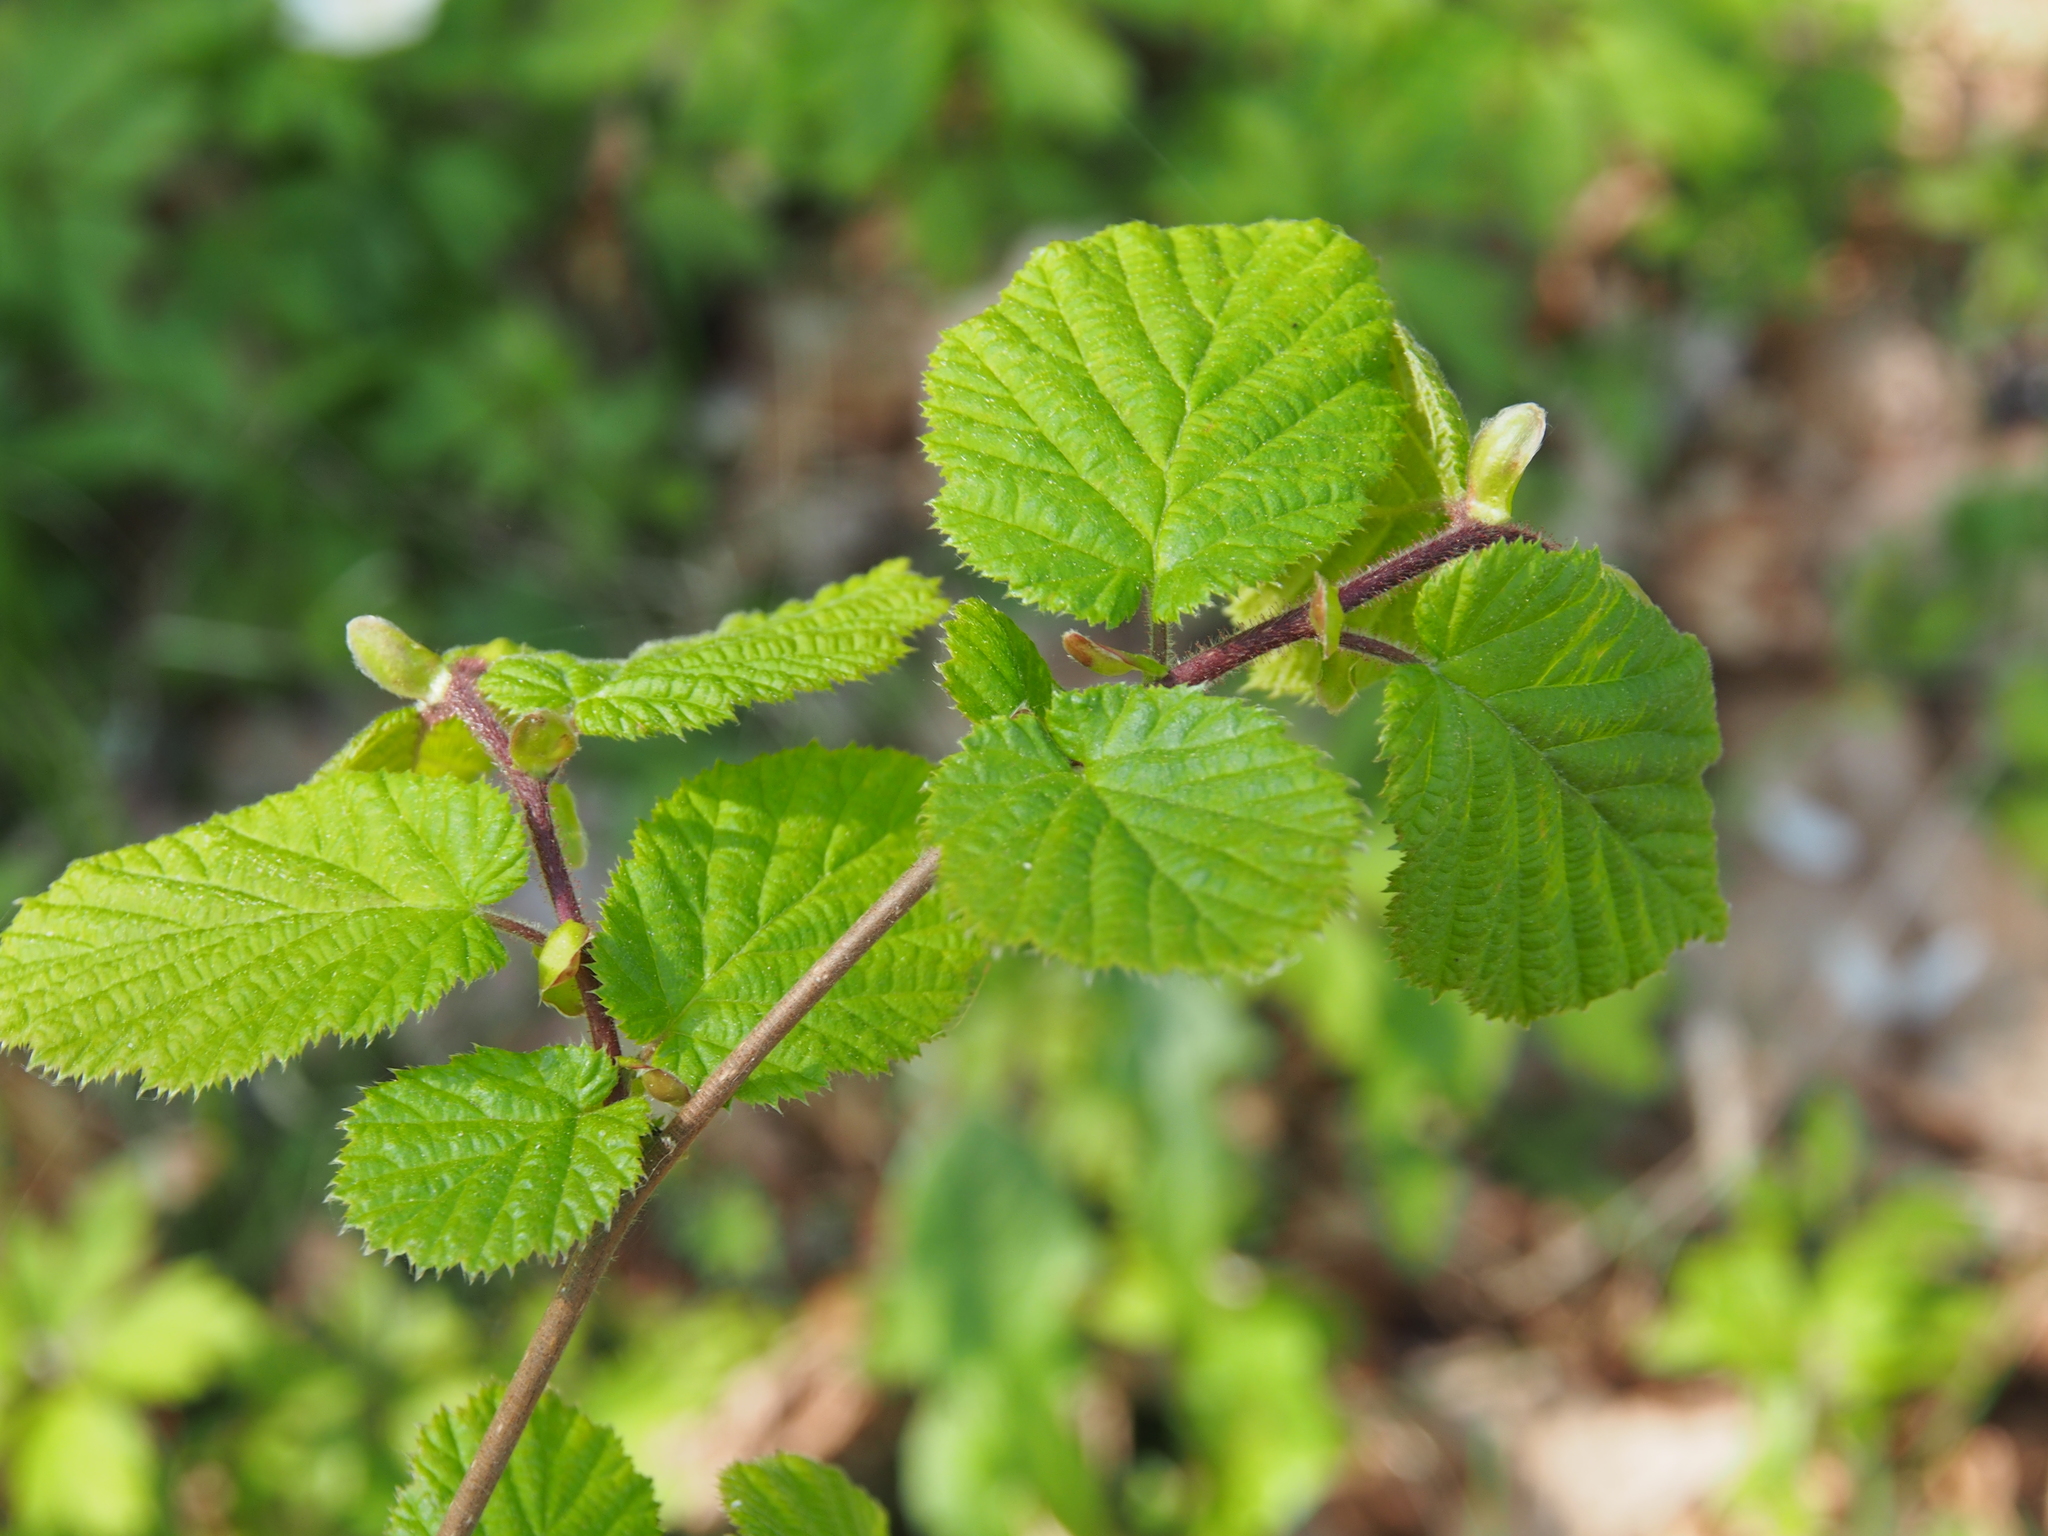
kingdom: Plantae
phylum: Tracheophyta
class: Magnoliopsida
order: Fagales
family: Betulaceae
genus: Corylus
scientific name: Corylus avellana
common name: European hazel
